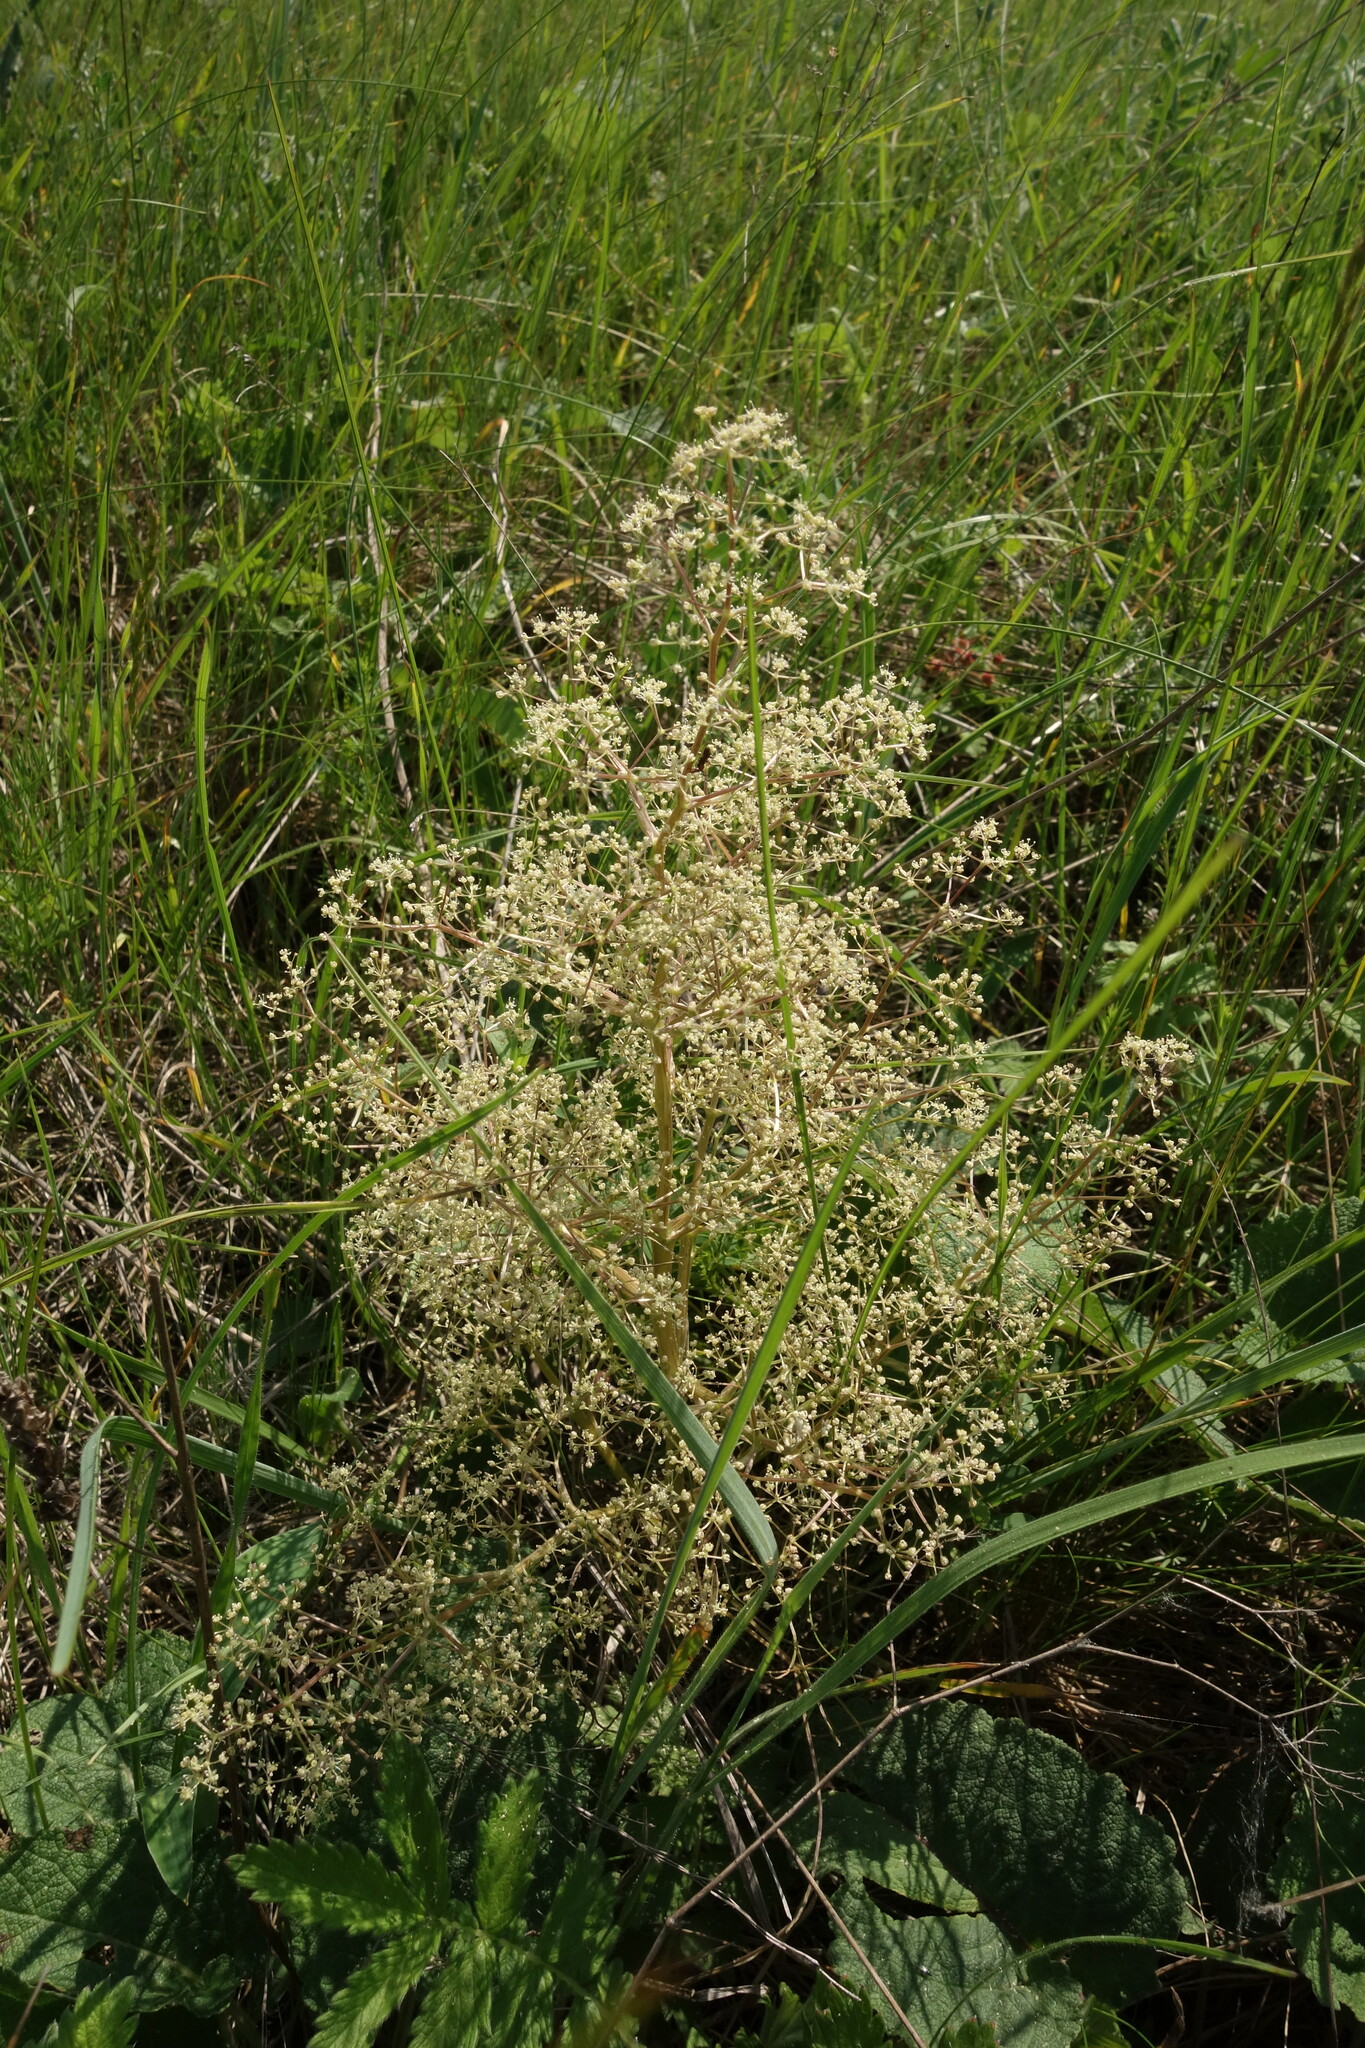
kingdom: Plantae
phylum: Tracheophyta
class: Magnoliopsida
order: Apiales
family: Apiaceae
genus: Trinia
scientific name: Trinia multicaulis
